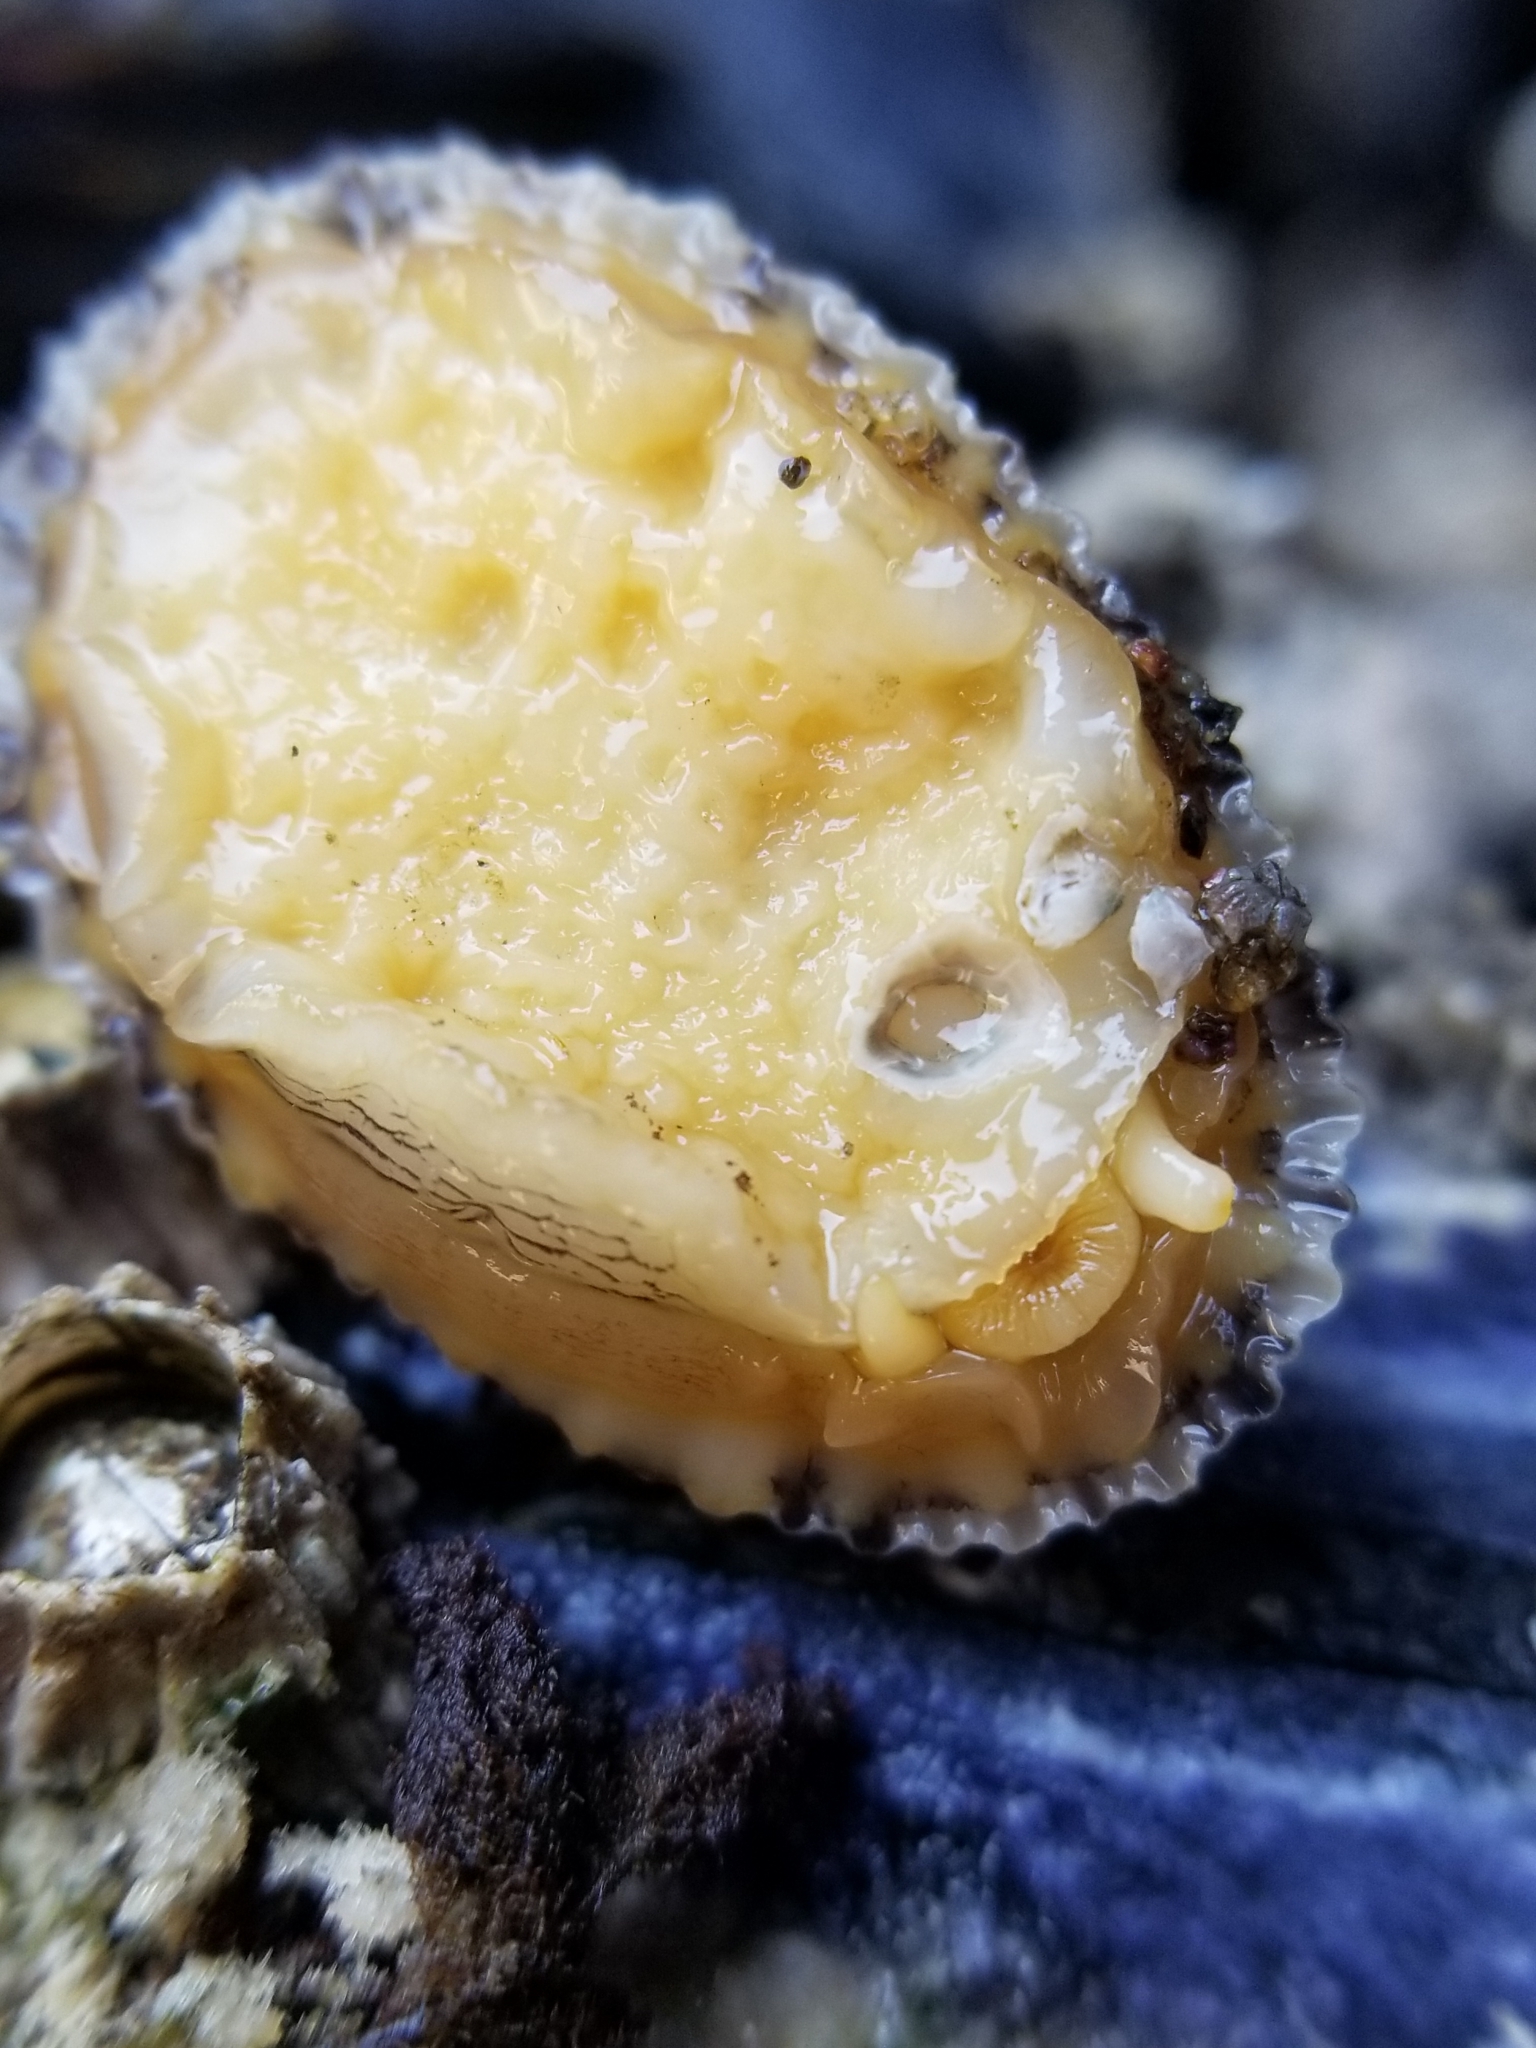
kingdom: Animalia
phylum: Mollusca
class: Gastropoda
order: Lepetellida
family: Fissurellidae
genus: Diodora
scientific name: Diodora aspera
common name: Rough keyhole limpet
